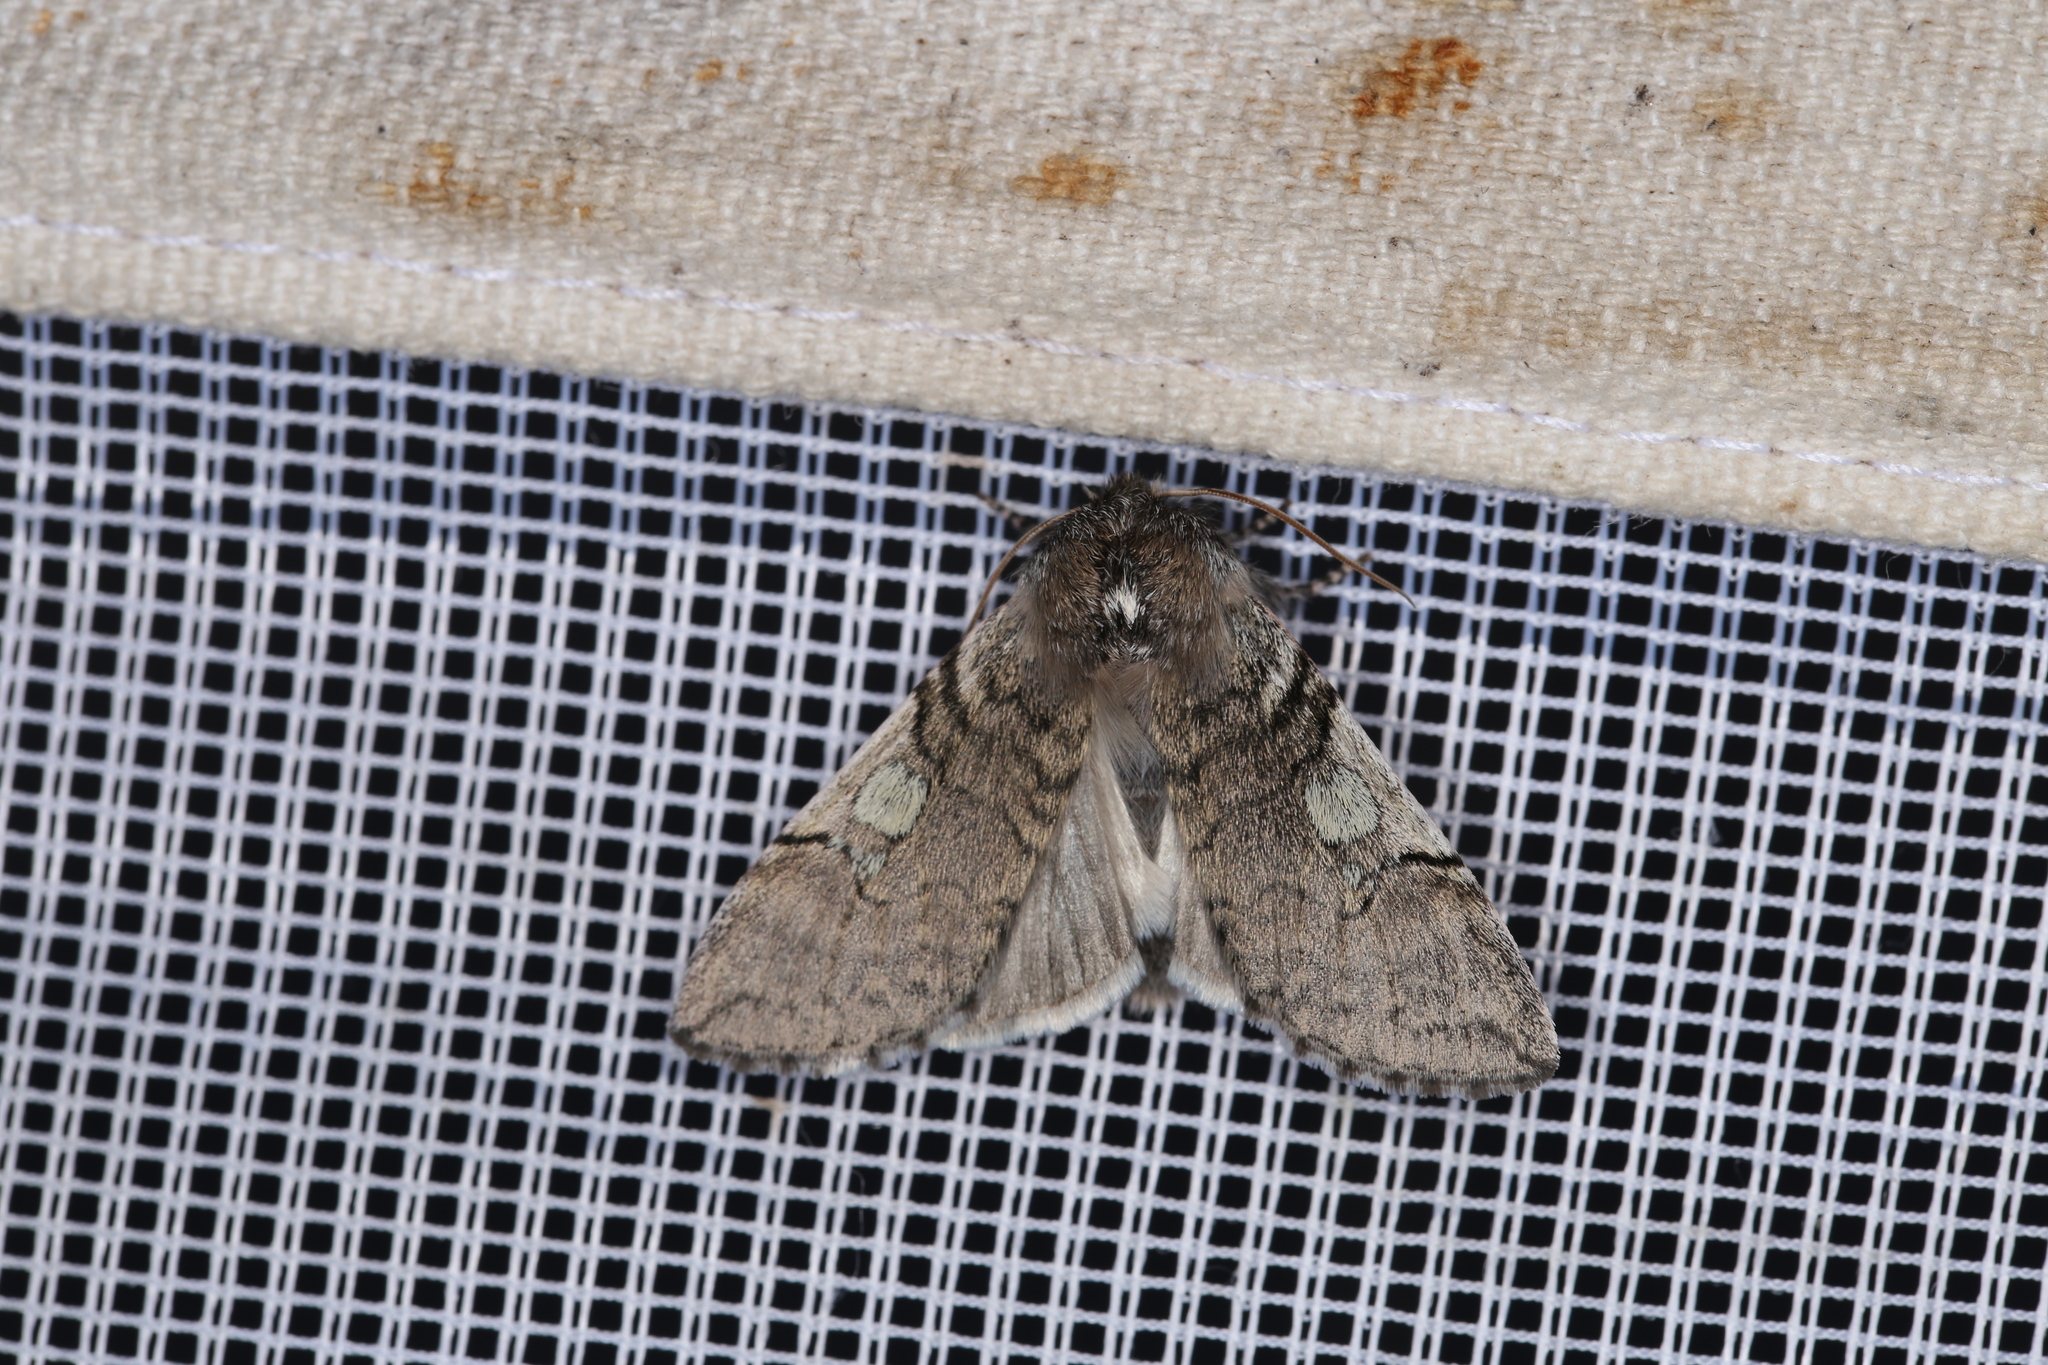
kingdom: Animalia
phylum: Arthropoda
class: Insecta
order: Lepidoptera
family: Drepanidae
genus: Achlya
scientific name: Achlya flavicornis
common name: Yellow horned
